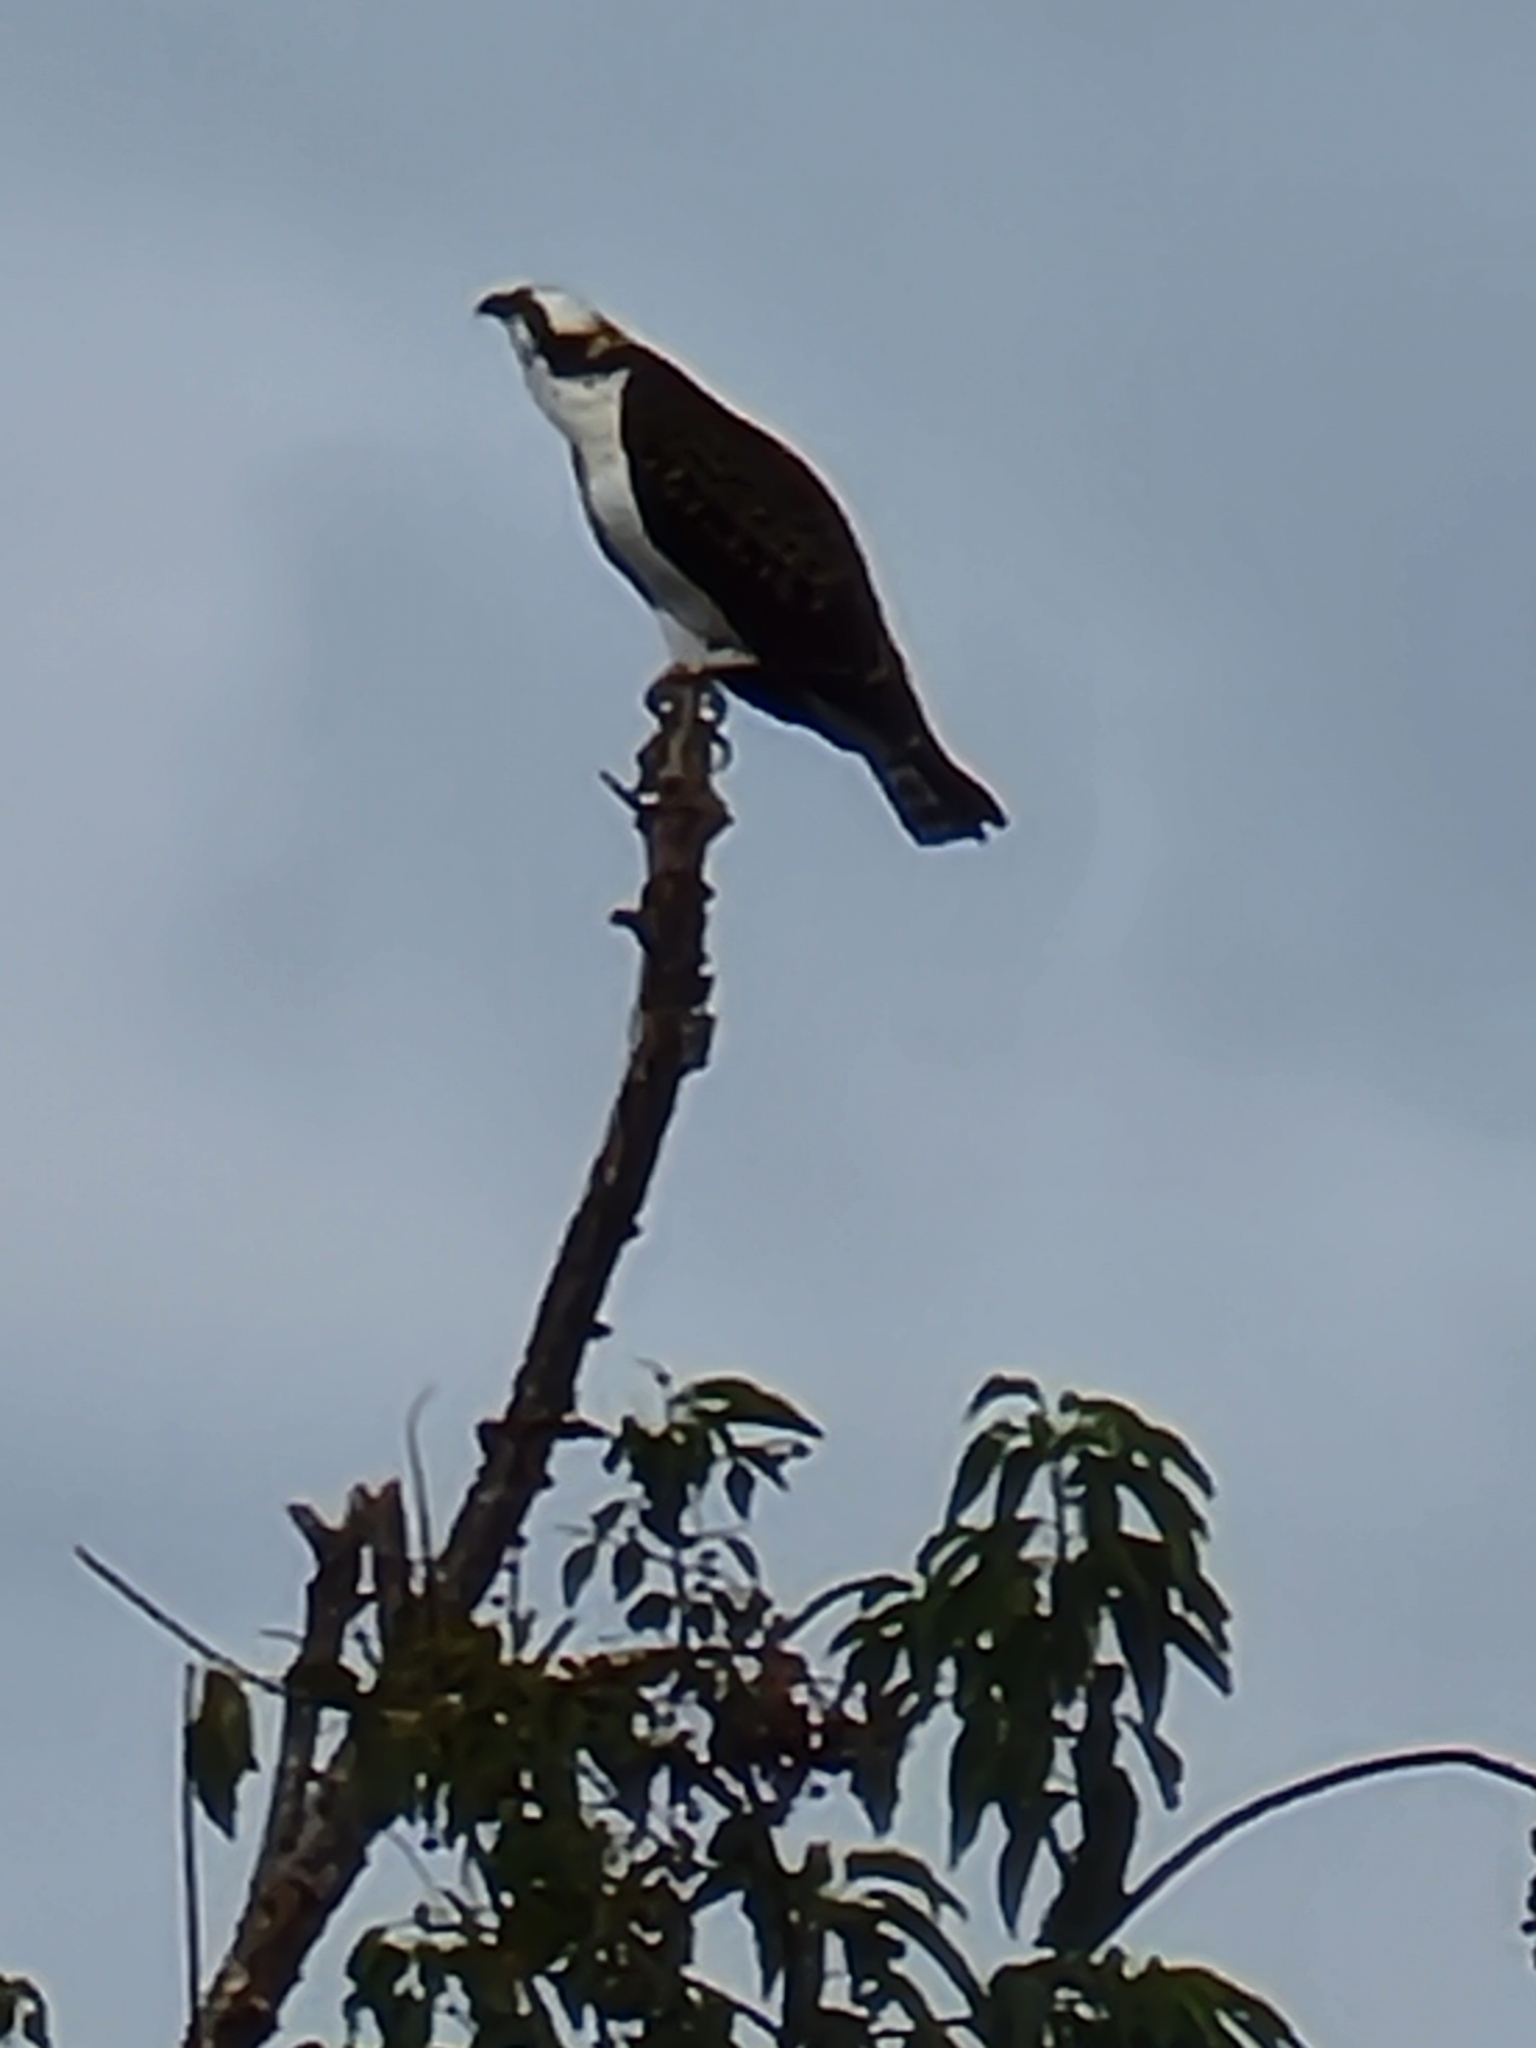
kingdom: Animalia
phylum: Chordata
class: Aves
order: Accipitriformes
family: Pandionidae
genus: Pandion
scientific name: Pandion haliaetus
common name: Osprey
